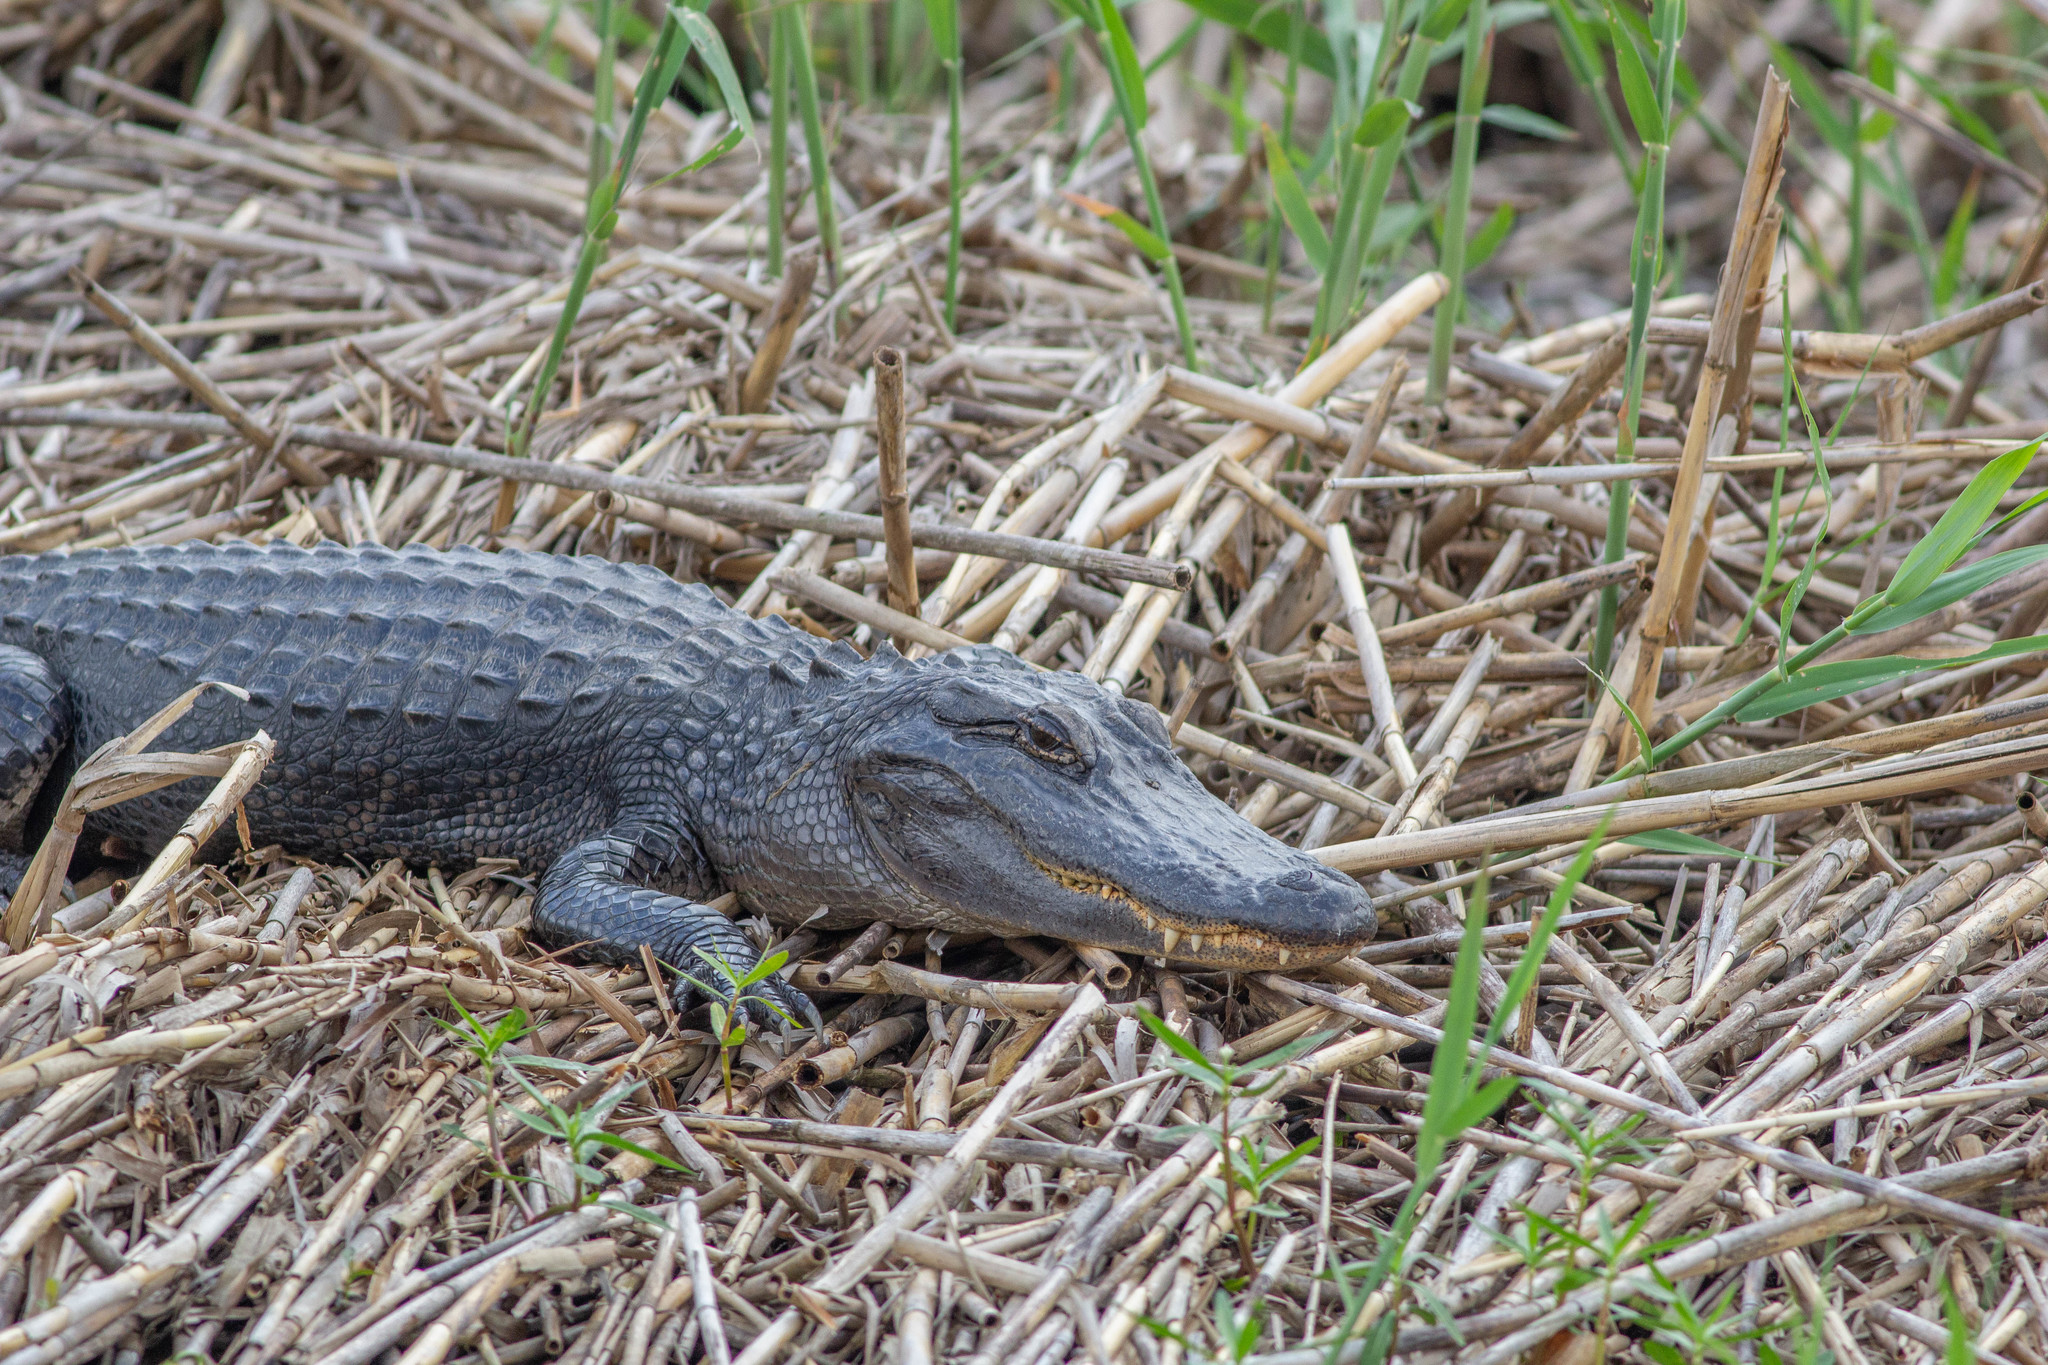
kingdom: Animalia
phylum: Chordata
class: Crocodylia
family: Alligatoridae
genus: Alligator
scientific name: Alligator mississippiensis
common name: American alligator
